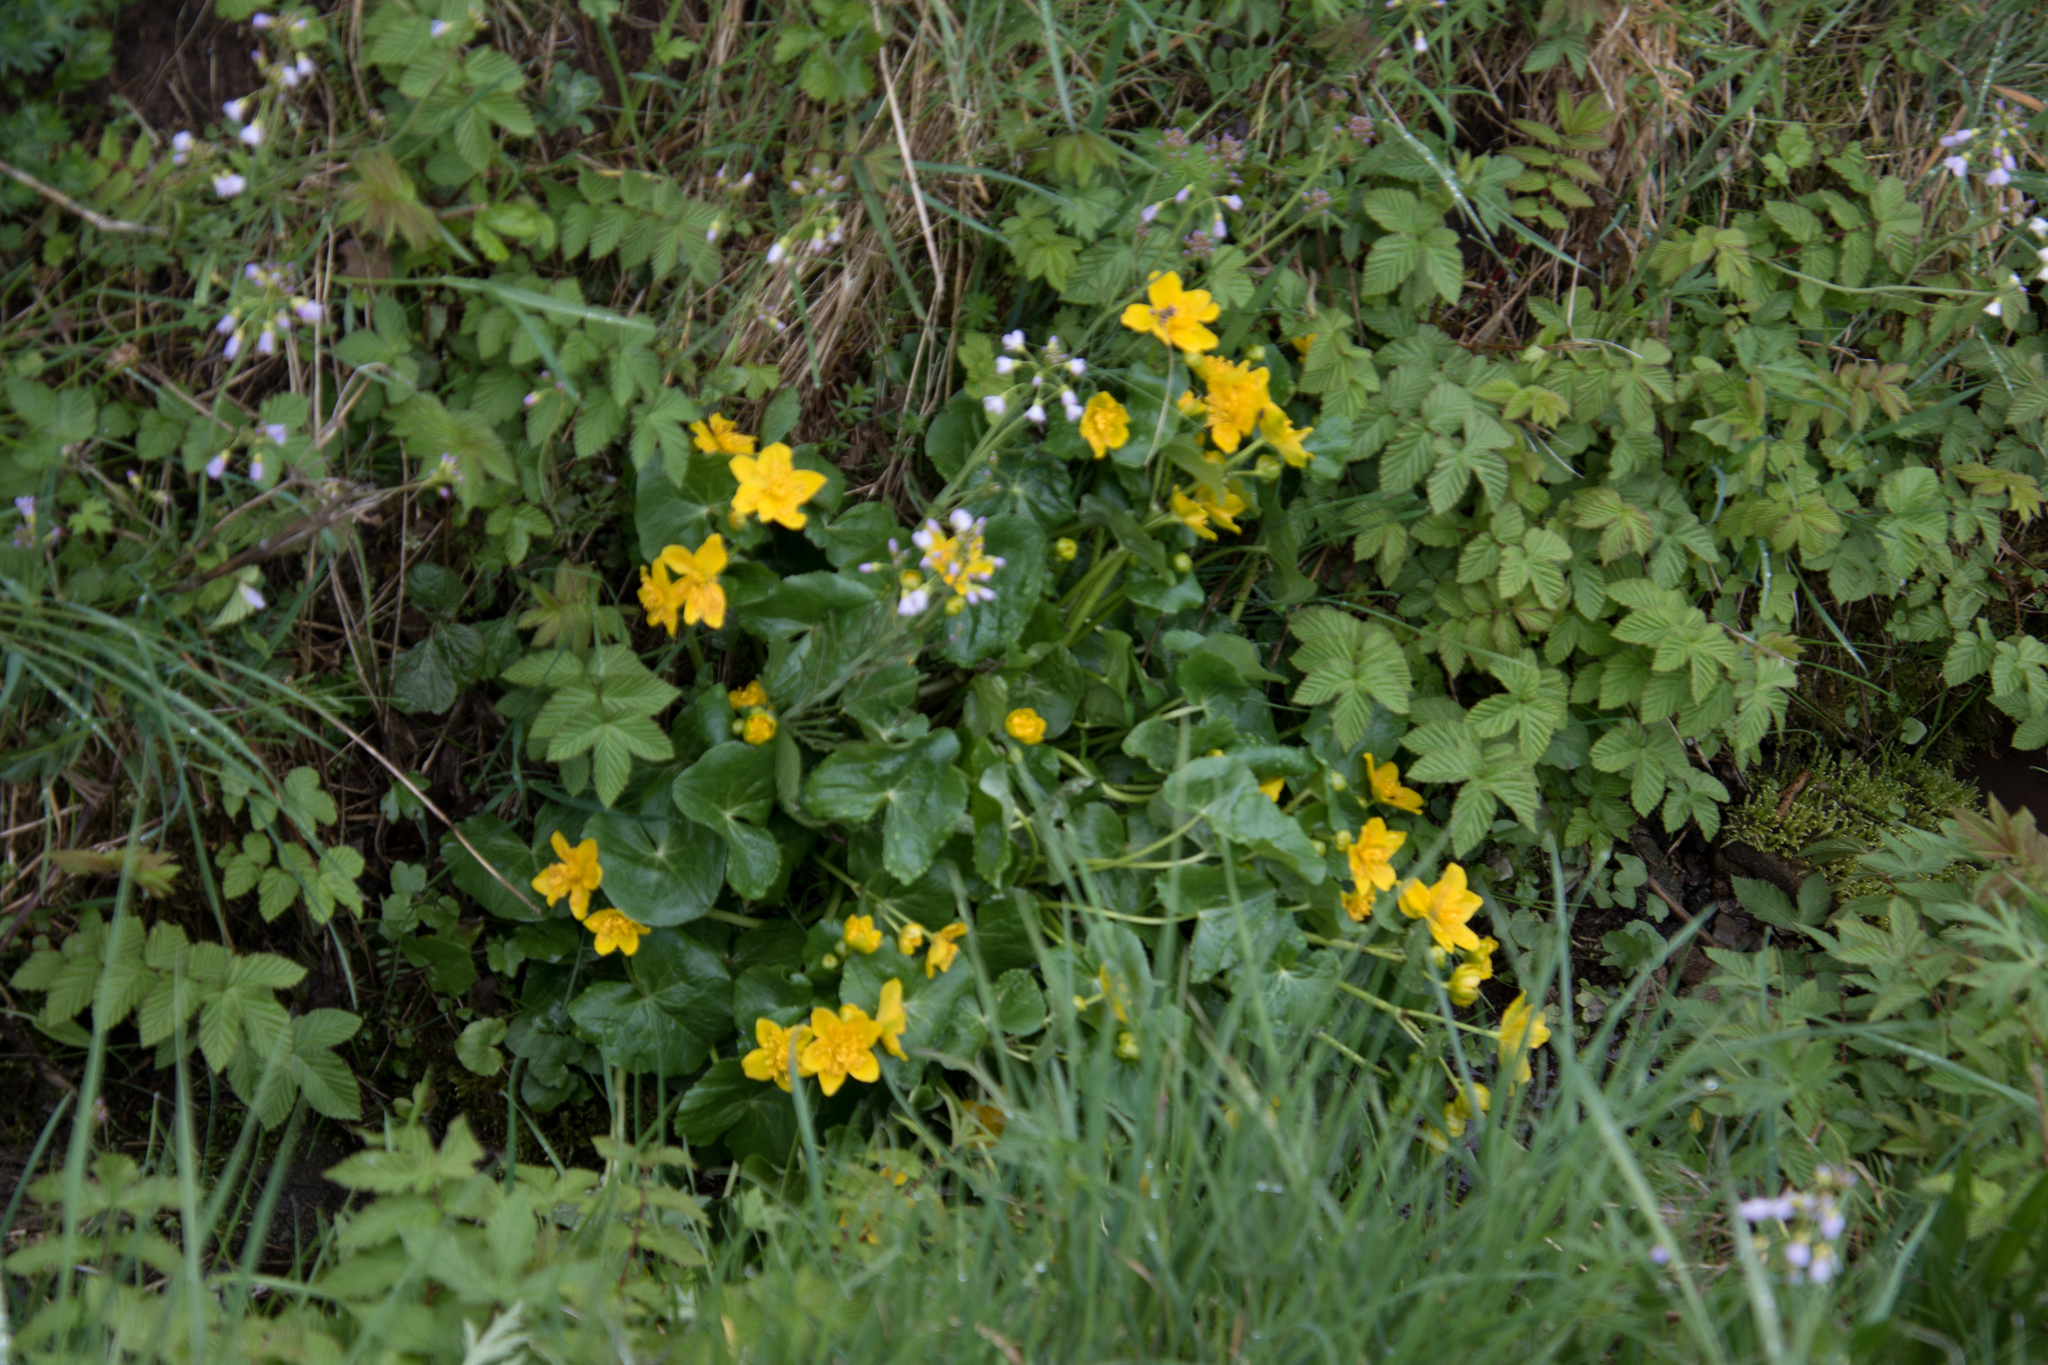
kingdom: Plantae
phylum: Tracheophyta
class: Magnoliopsida
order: Ranunculales
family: Ranunculaceae
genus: Caltha
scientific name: Caltha palustris
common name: Marsh marigold
